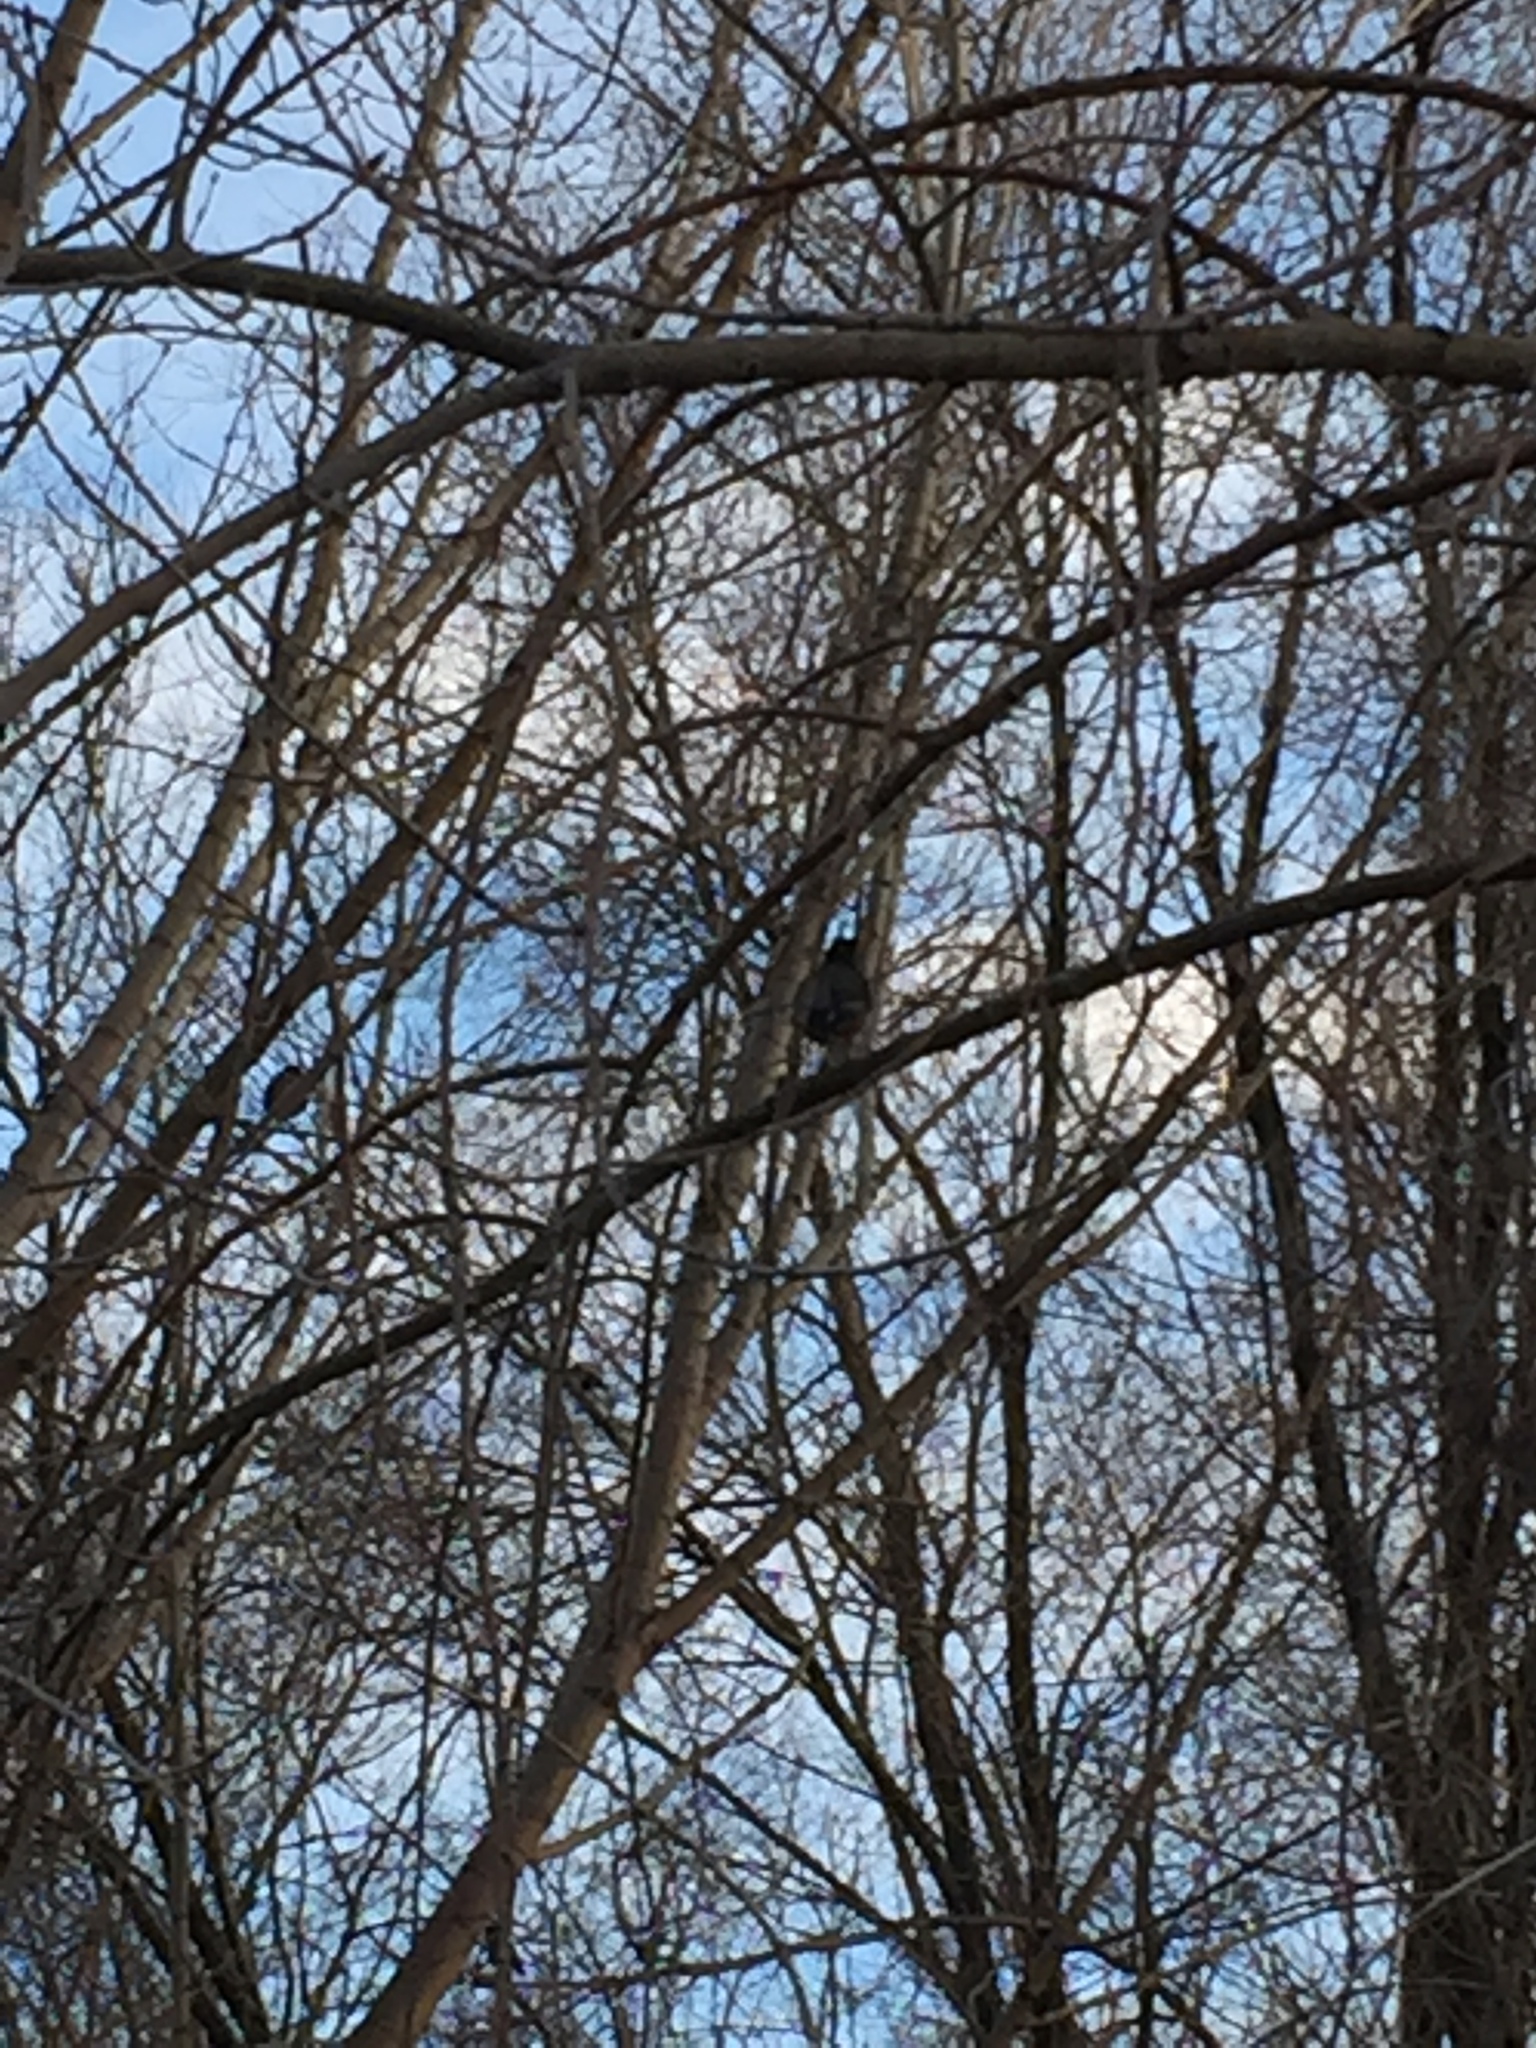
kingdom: Animalia
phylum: Chordata
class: Aves
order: Passeriformes
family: Turdidae
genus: Turdus
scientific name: Turdus migratorius
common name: American robin
